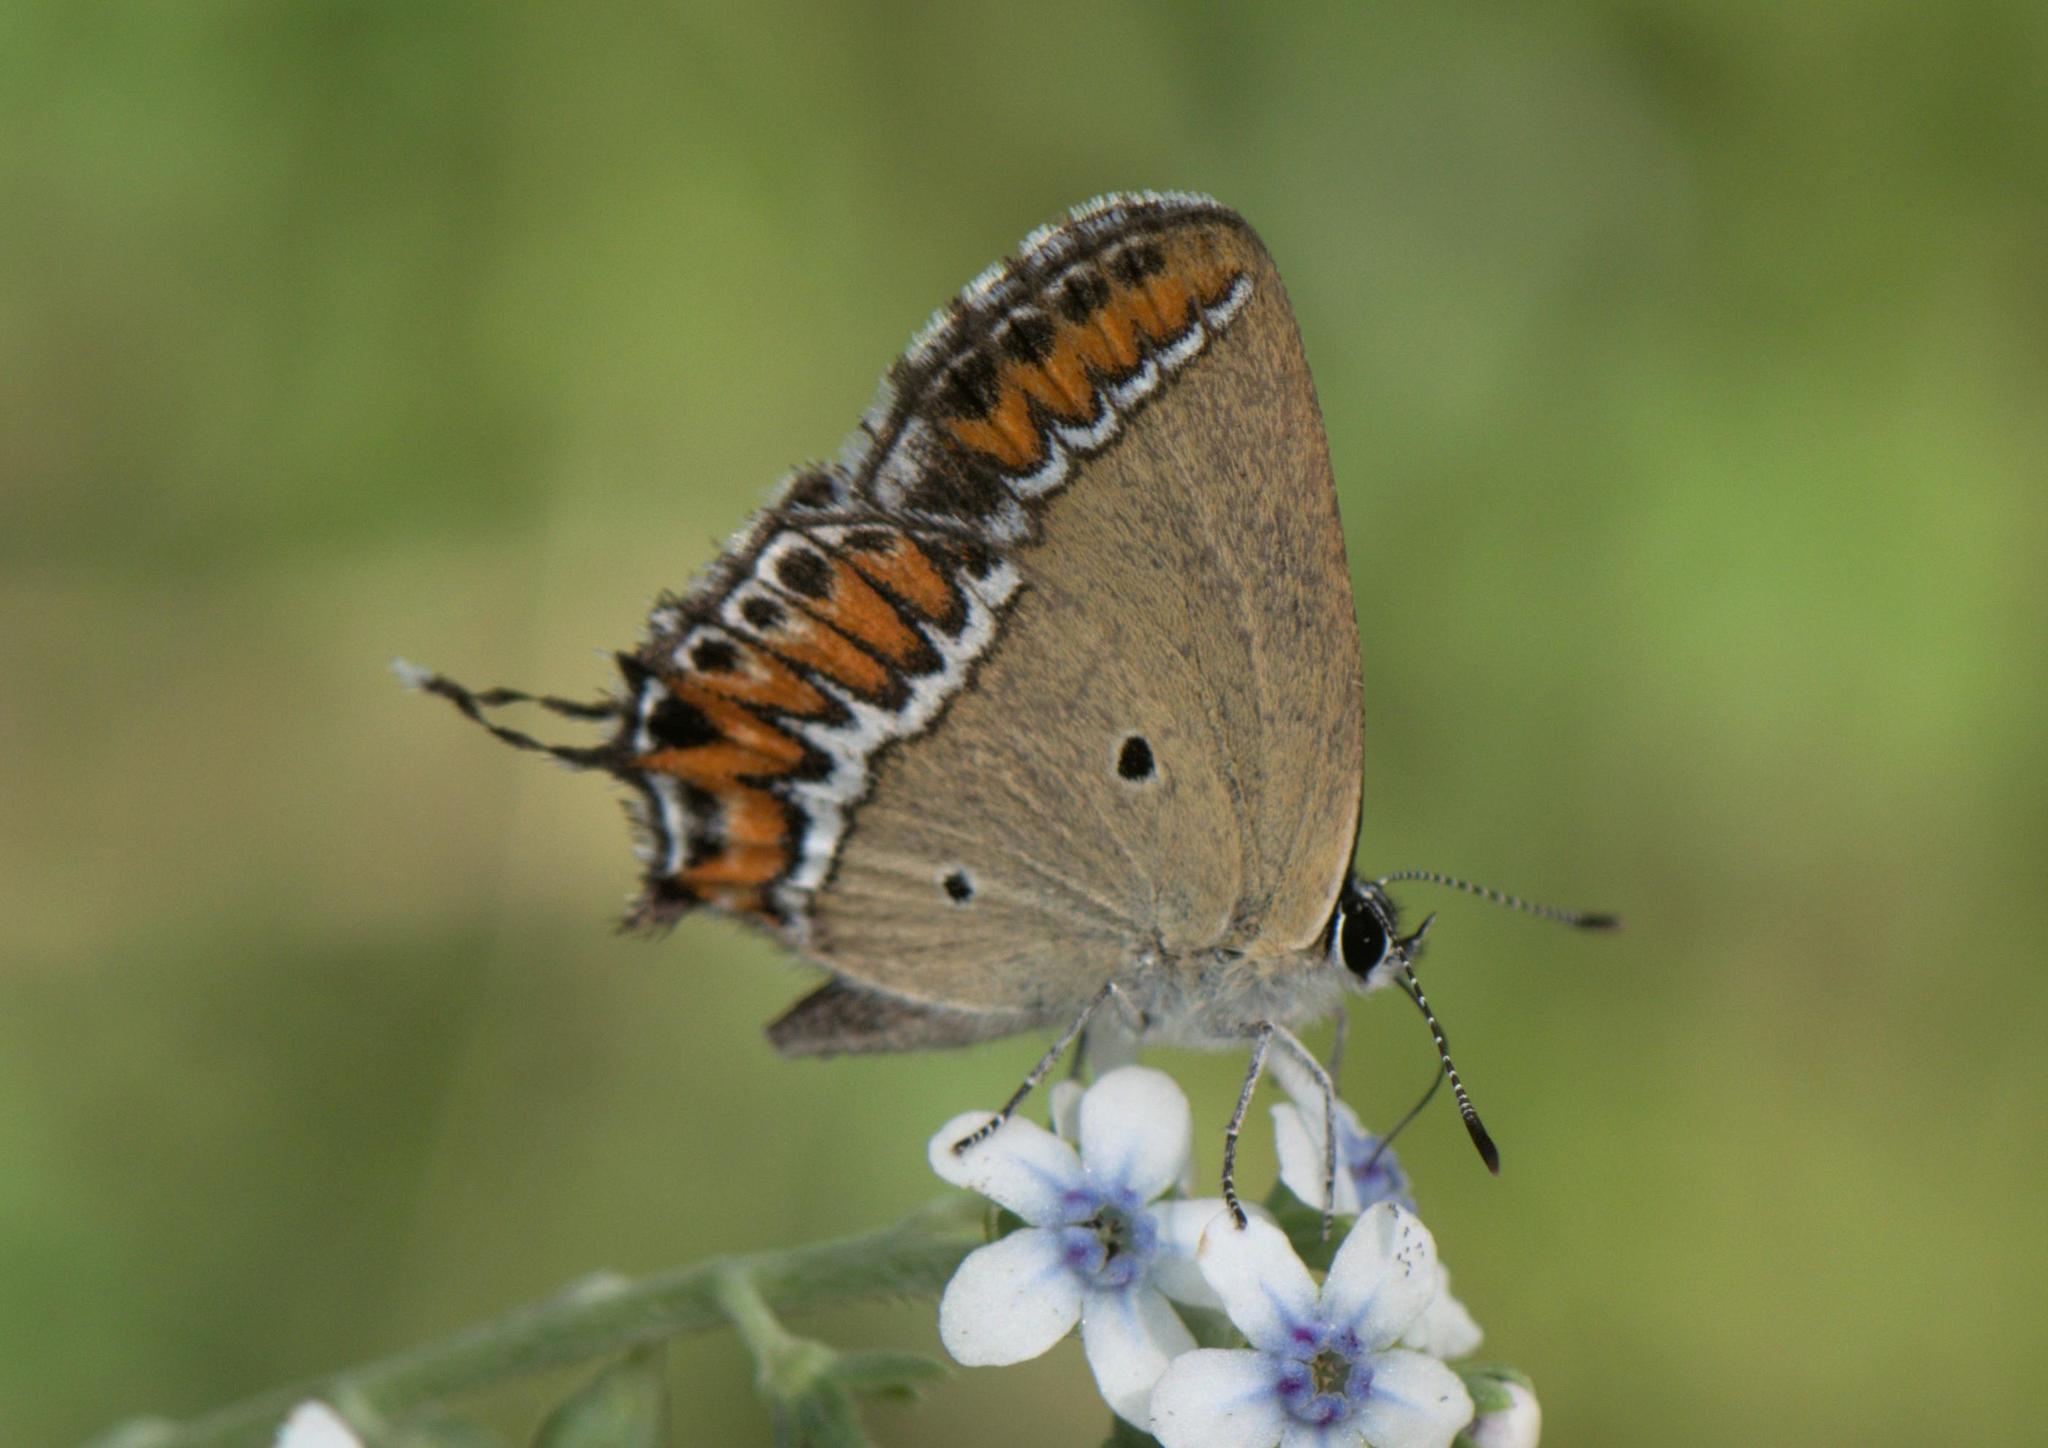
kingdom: Animalia
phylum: Arthropoda
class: Insecta
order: Lepidoptera
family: Lycaenidae
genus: Heliophorus
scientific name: Heliophorus sena
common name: Sorrel sapphire
